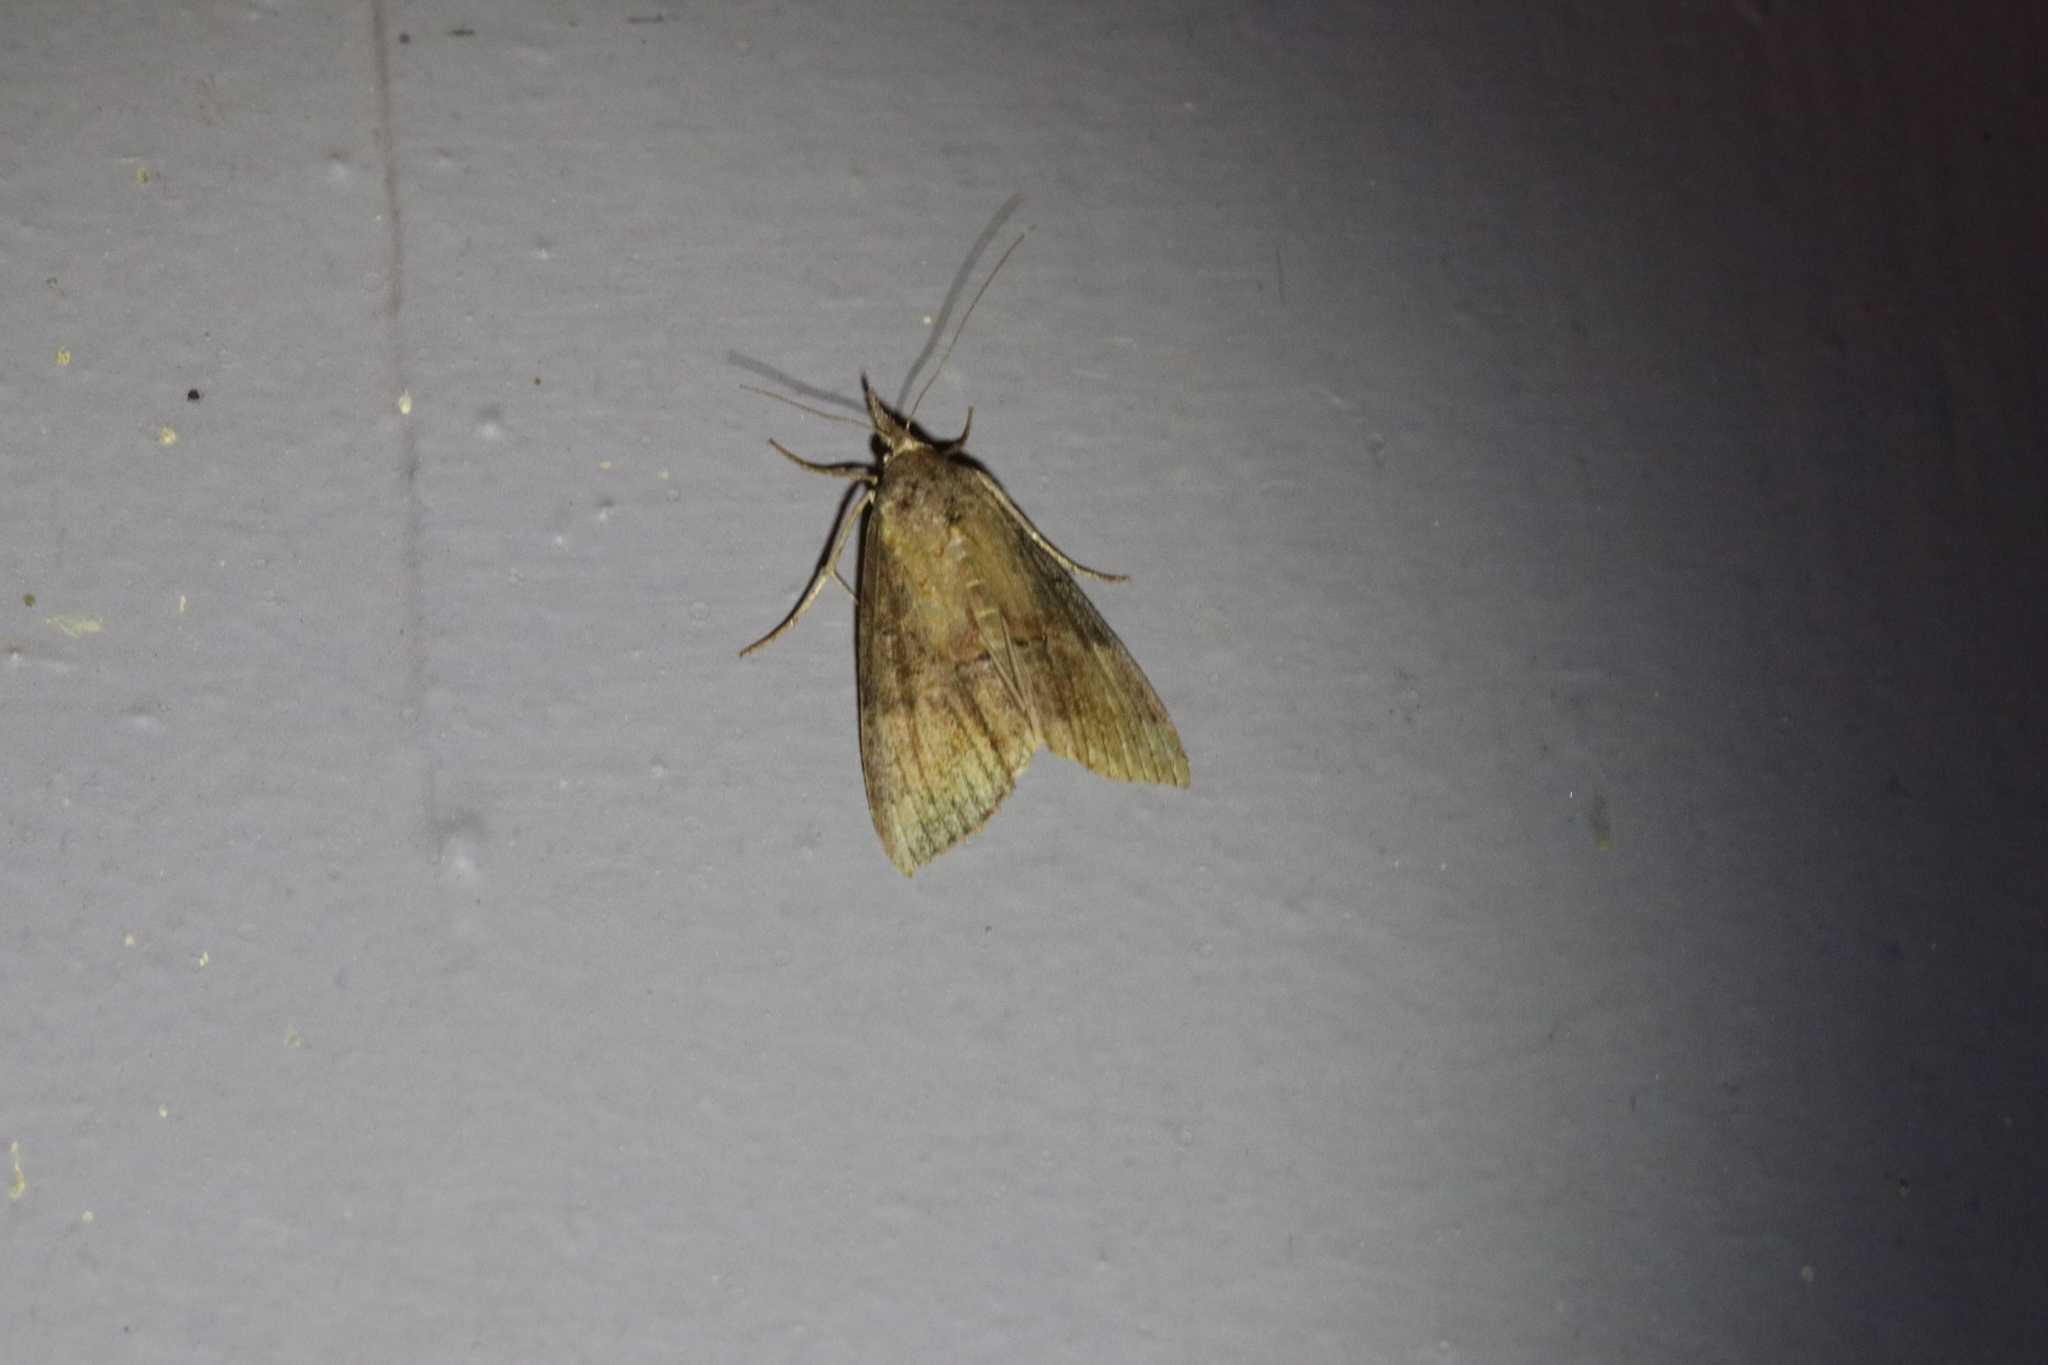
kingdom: Animalia
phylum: Arthropoda
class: Insecta
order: Lepidoptera
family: Erebidae
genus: Hypena
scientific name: Hypena scabra
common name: Green cloverworm
